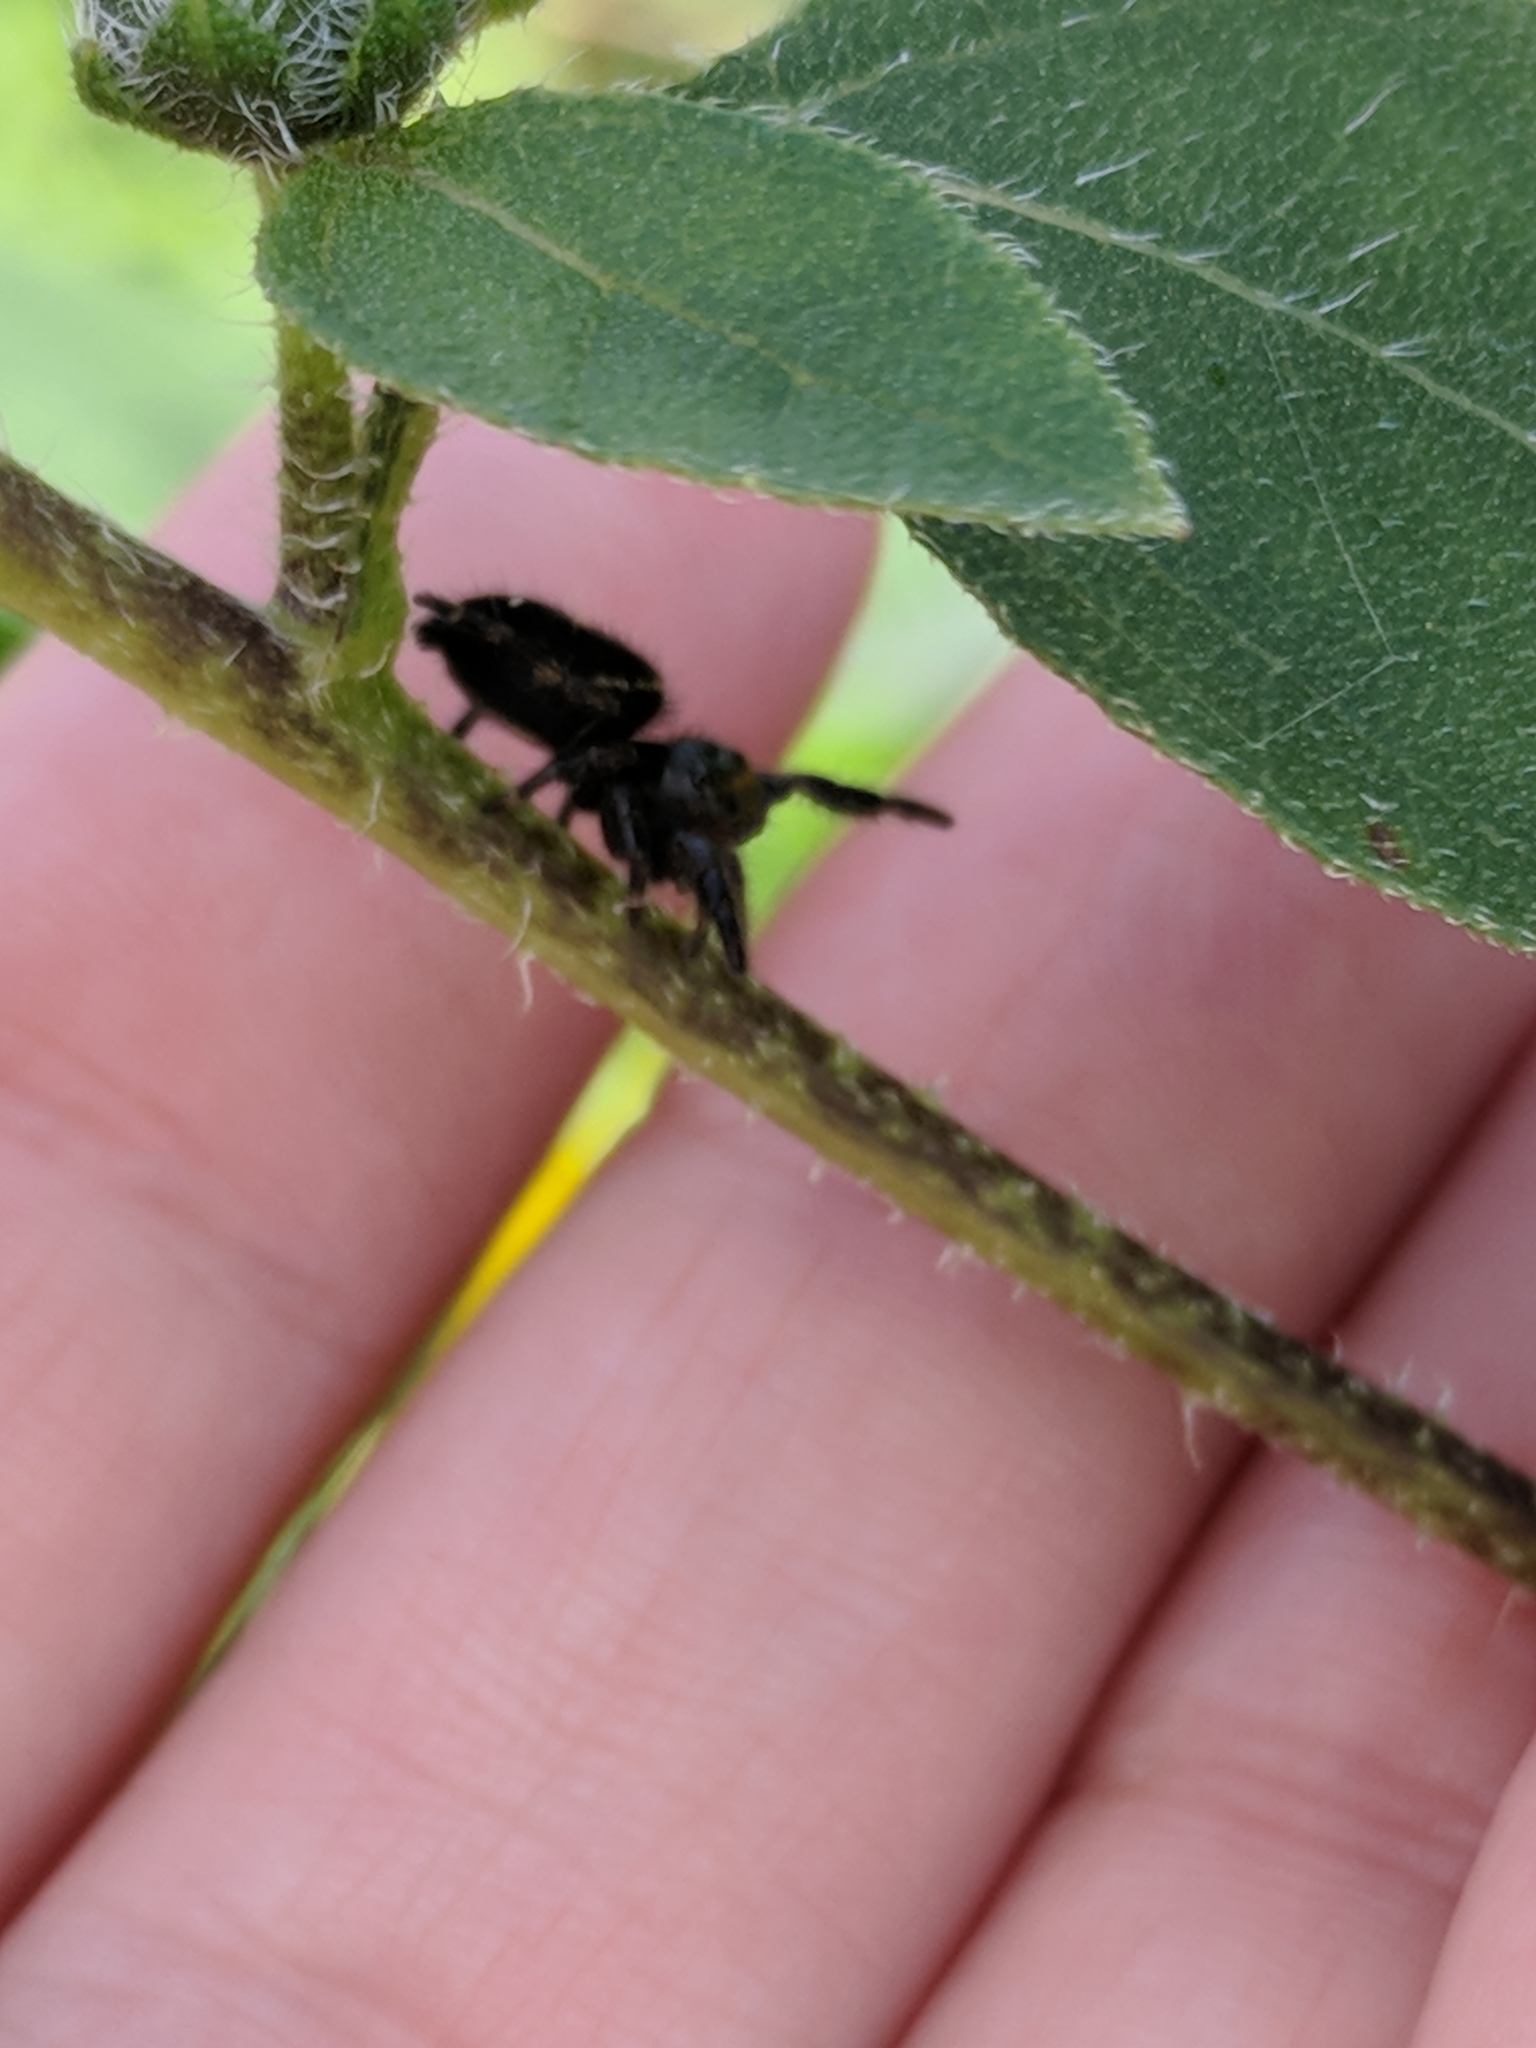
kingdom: Animalia
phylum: Arthropoda
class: Arachnida
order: Araneae
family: Salticidae
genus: Phidippus
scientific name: Phidippus audax
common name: Bold jumper
